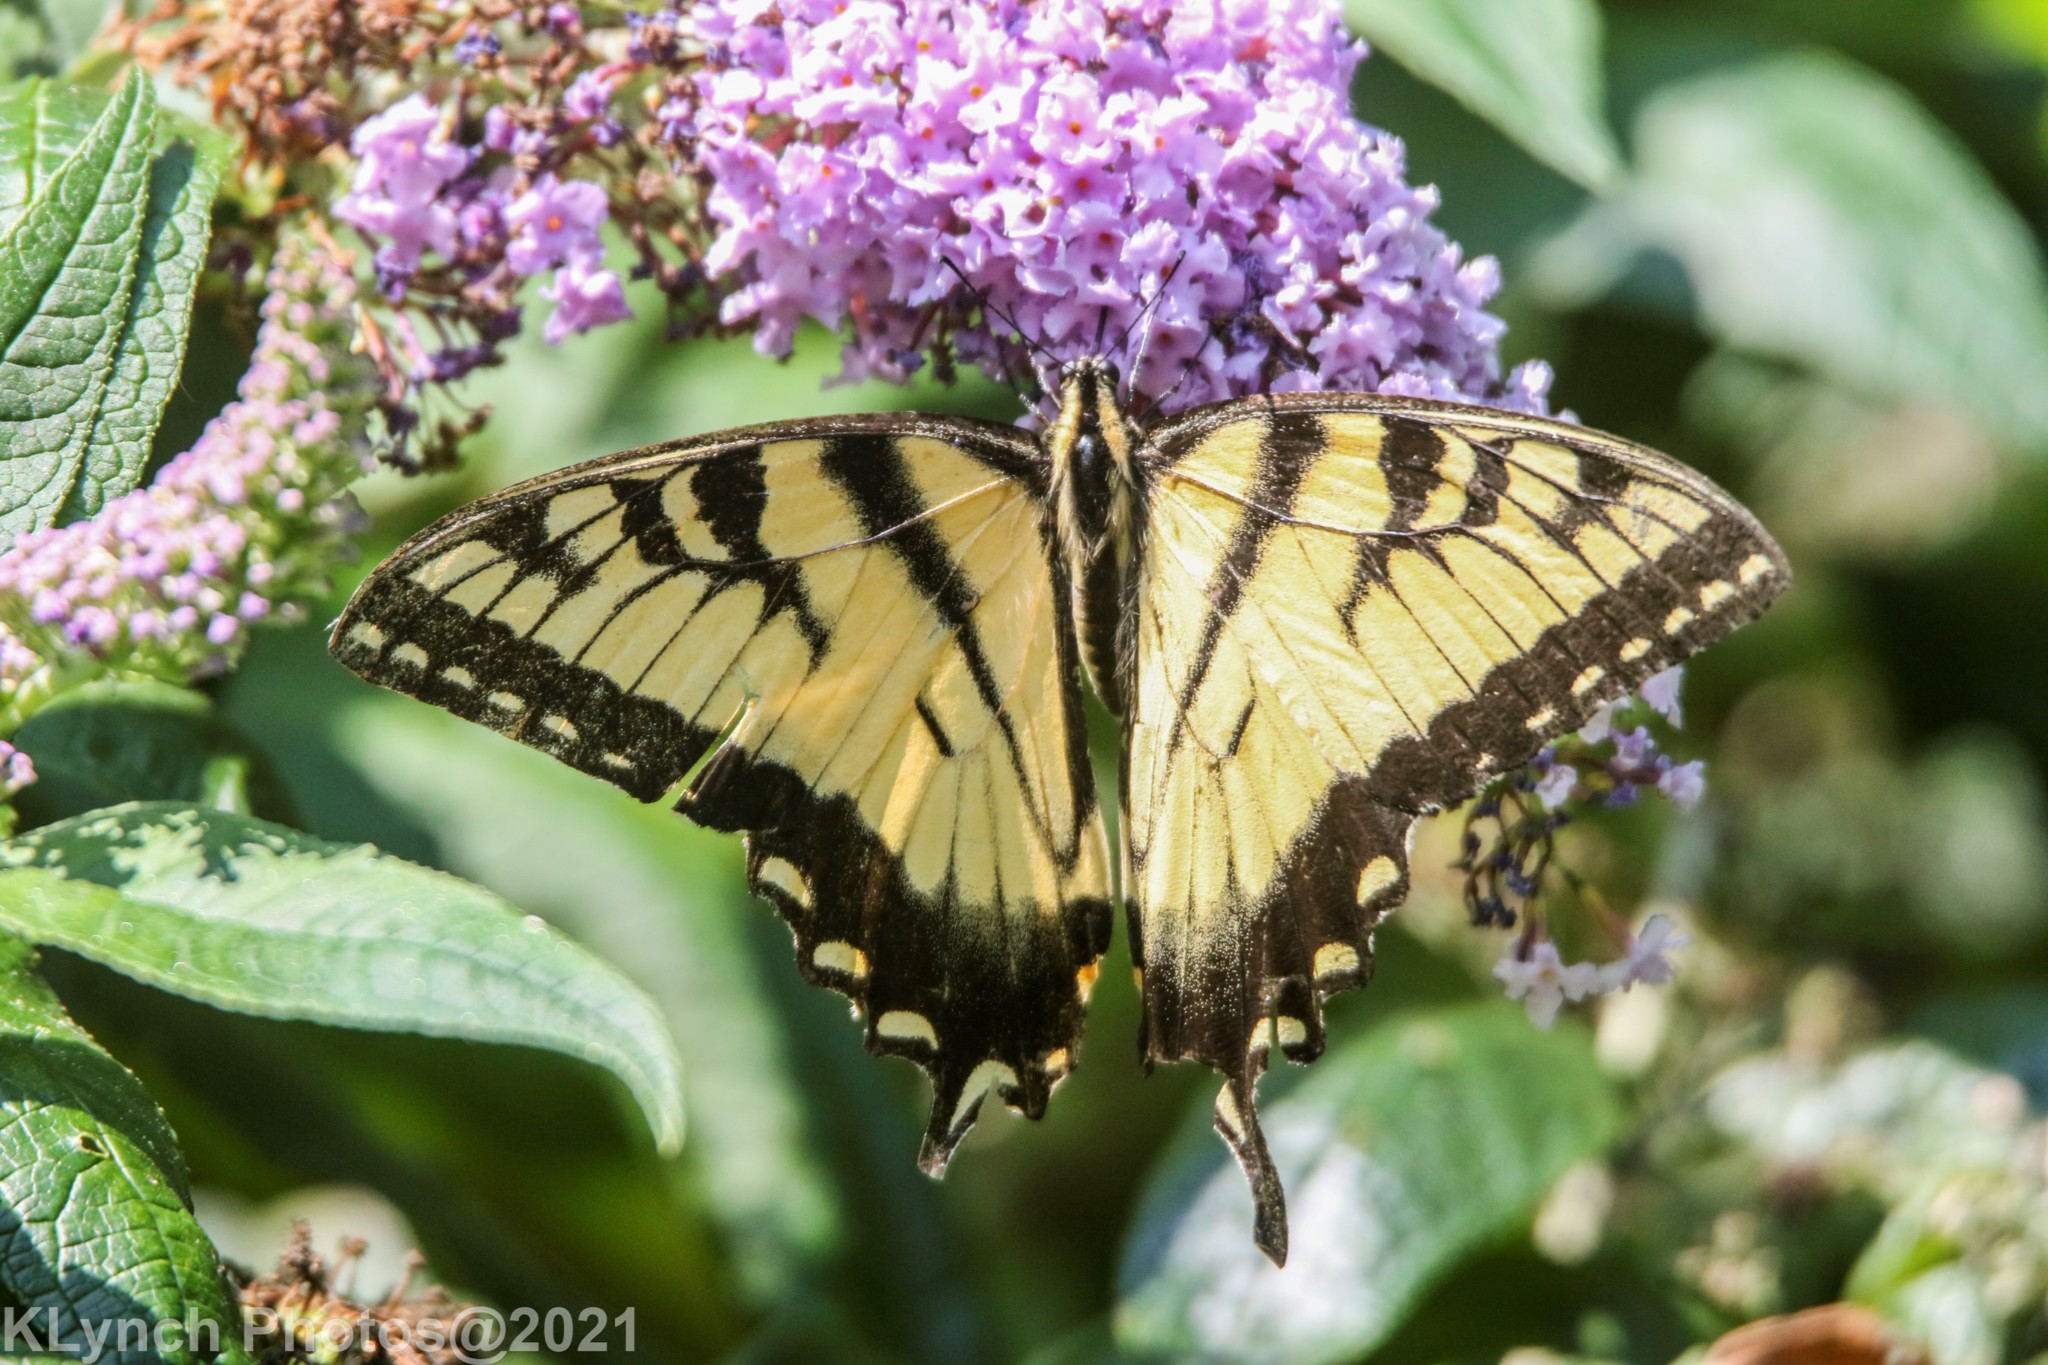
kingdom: Animalia
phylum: Arthropoda
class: Insecta
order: Lepidoptera
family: Papilionidae
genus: Papilio
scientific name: Papilio glaucus
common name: Tiger swallowtail
